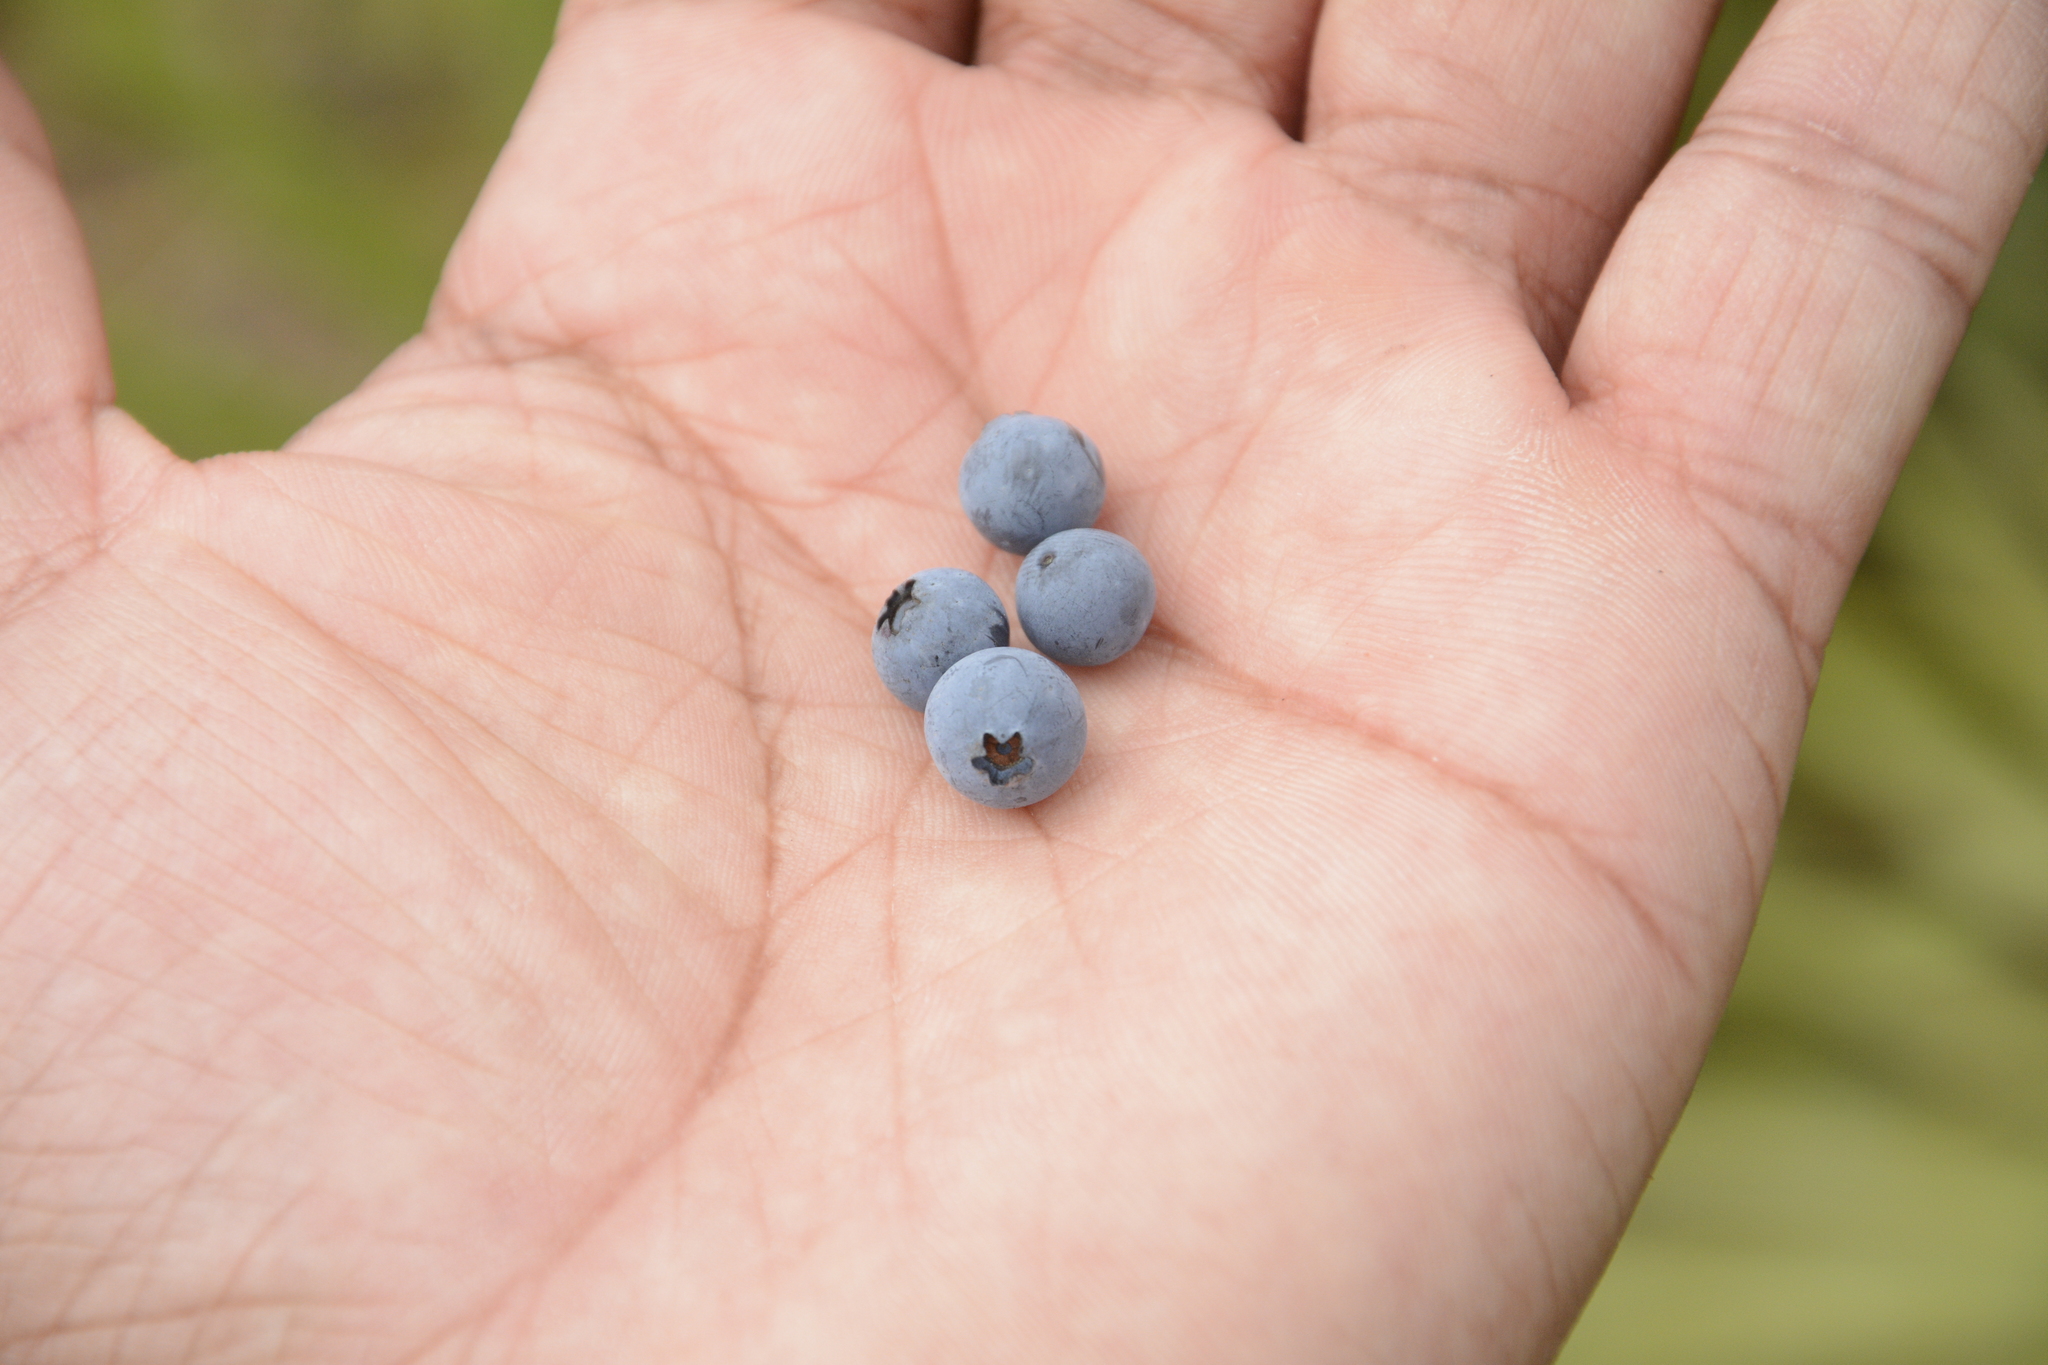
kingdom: Plantae
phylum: Tracheophyta
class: Magnoliopsida
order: Ericales
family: Ericaceae
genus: Gaylussacia
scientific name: Gaylussacia tomentosa
